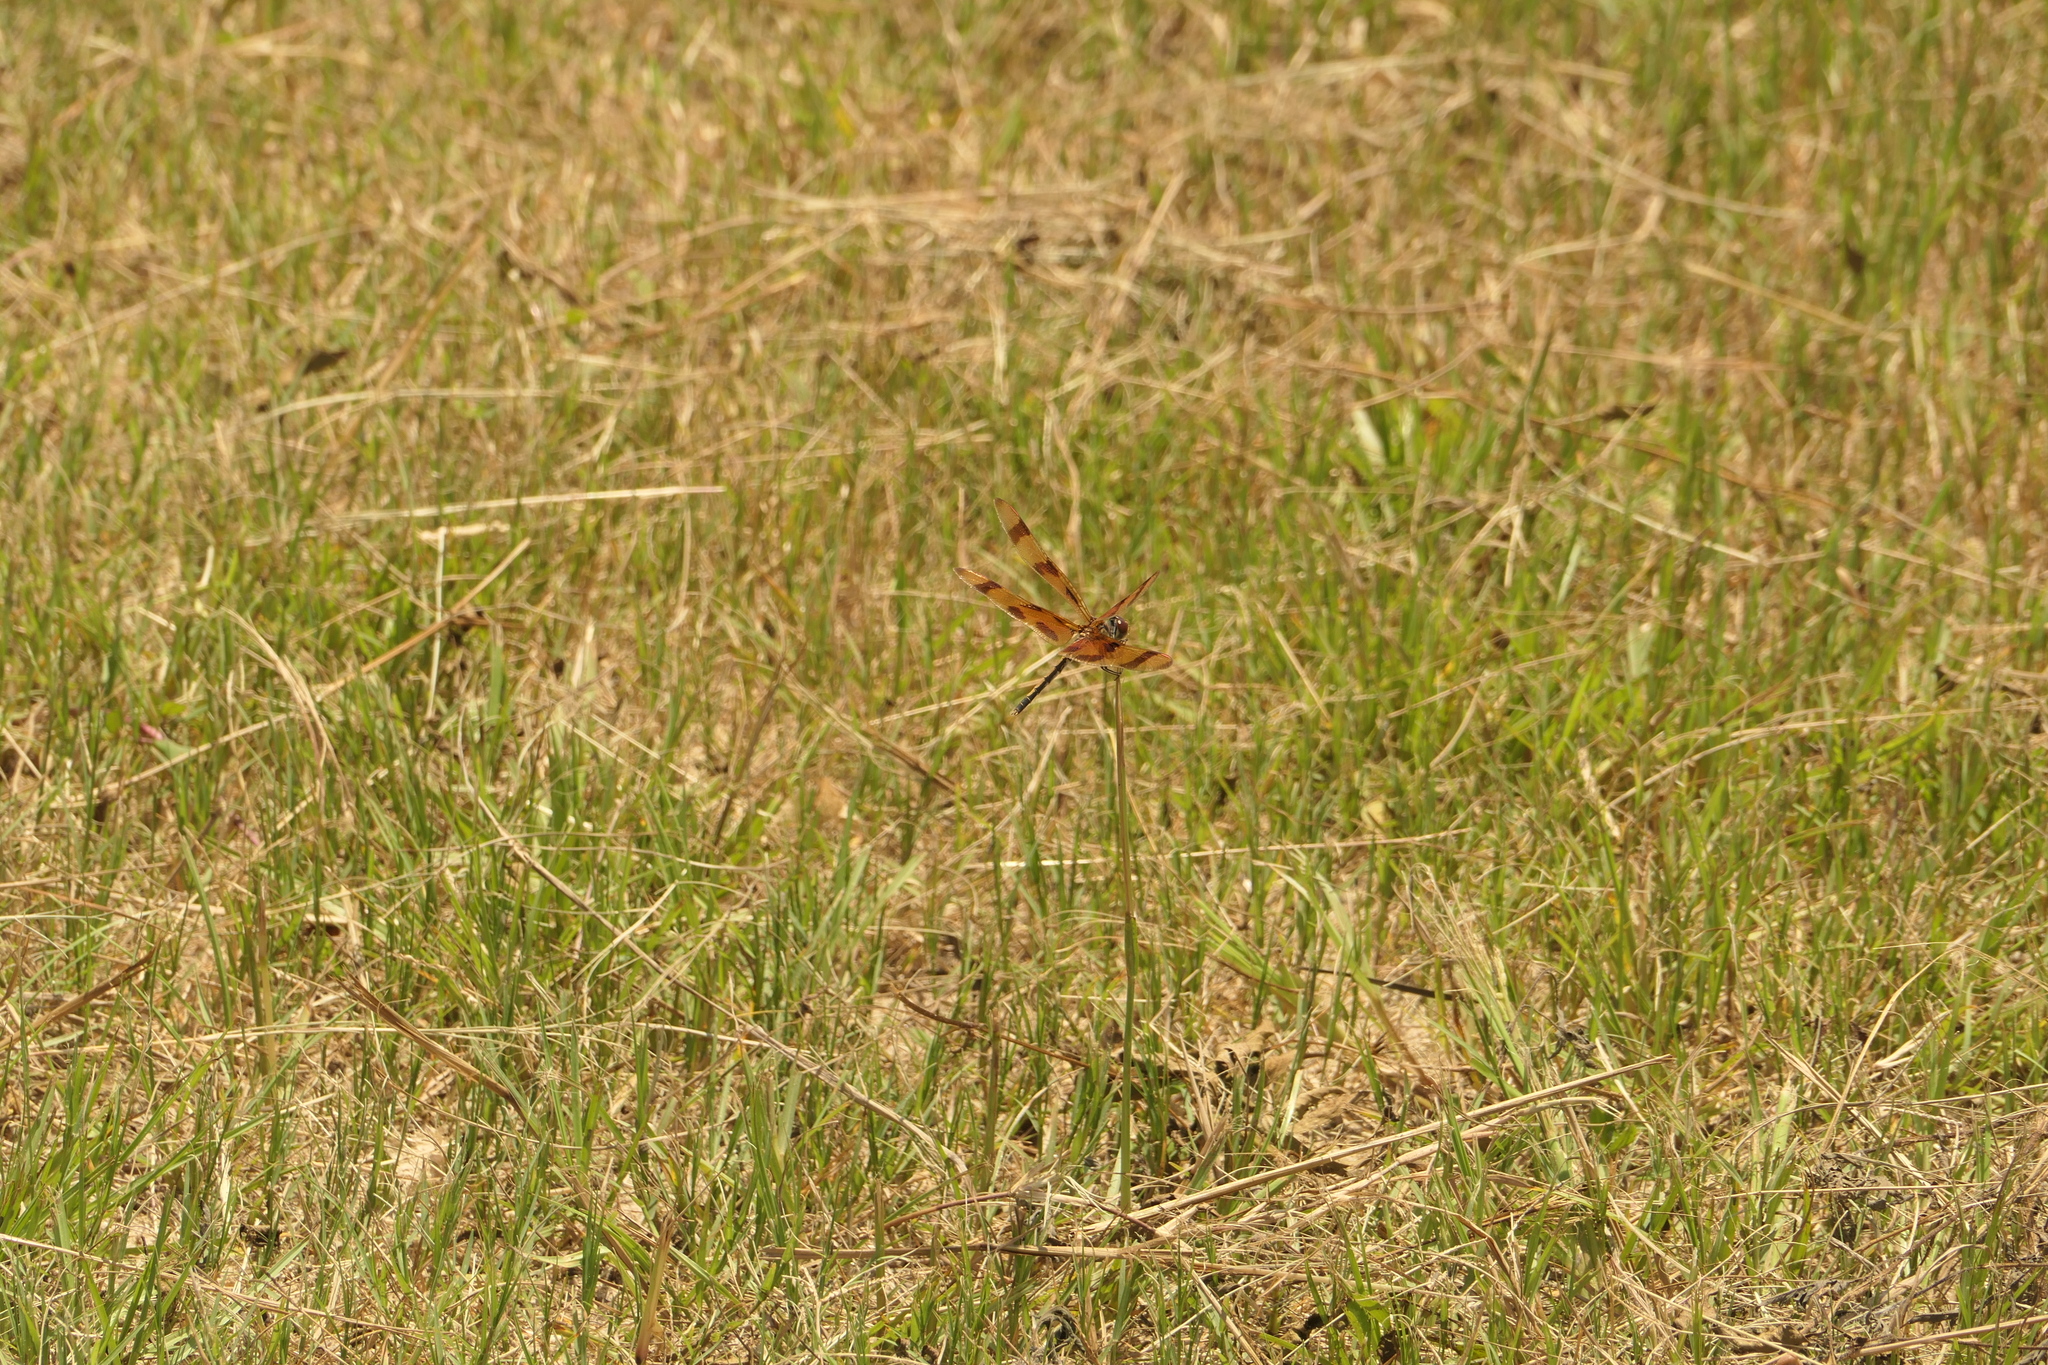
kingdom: Animalia
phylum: Arthropoda
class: Insecta
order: Odonata
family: Libellulidae
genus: Celithemis
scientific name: Celithemis eponina
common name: Halloween pennant
